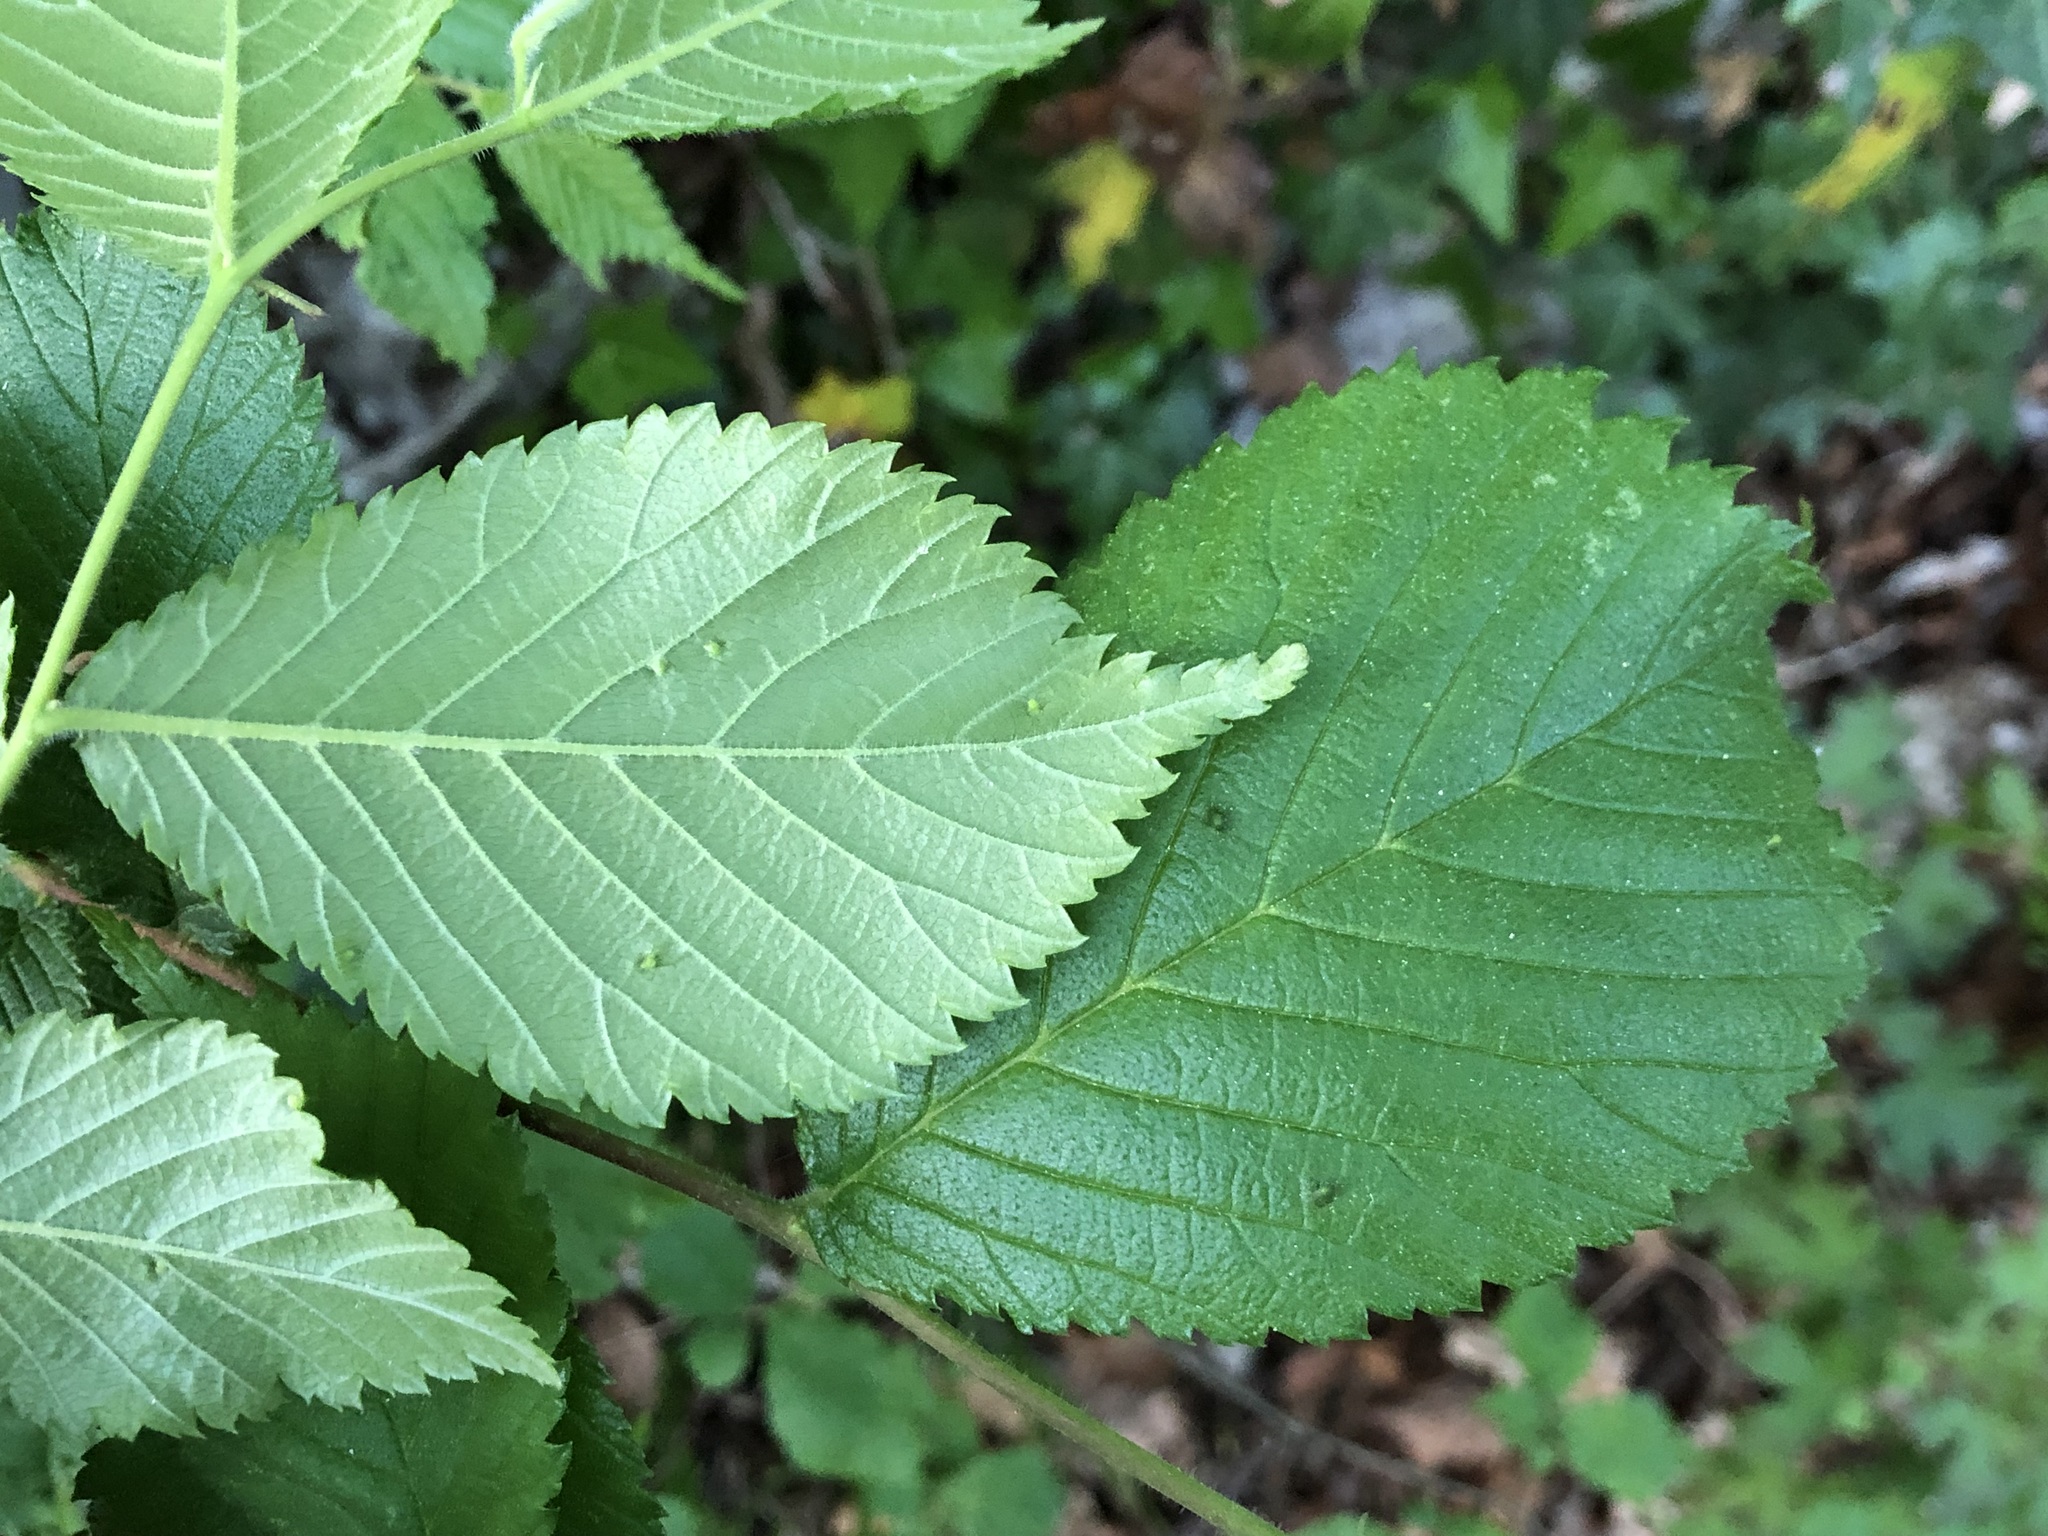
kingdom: Plantae
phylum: Tracheophyta
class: Magnoliopsida
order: Rosales
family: Ulmaceae
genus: Ulmus
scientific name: Ulmus glabra
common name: Wych elm
